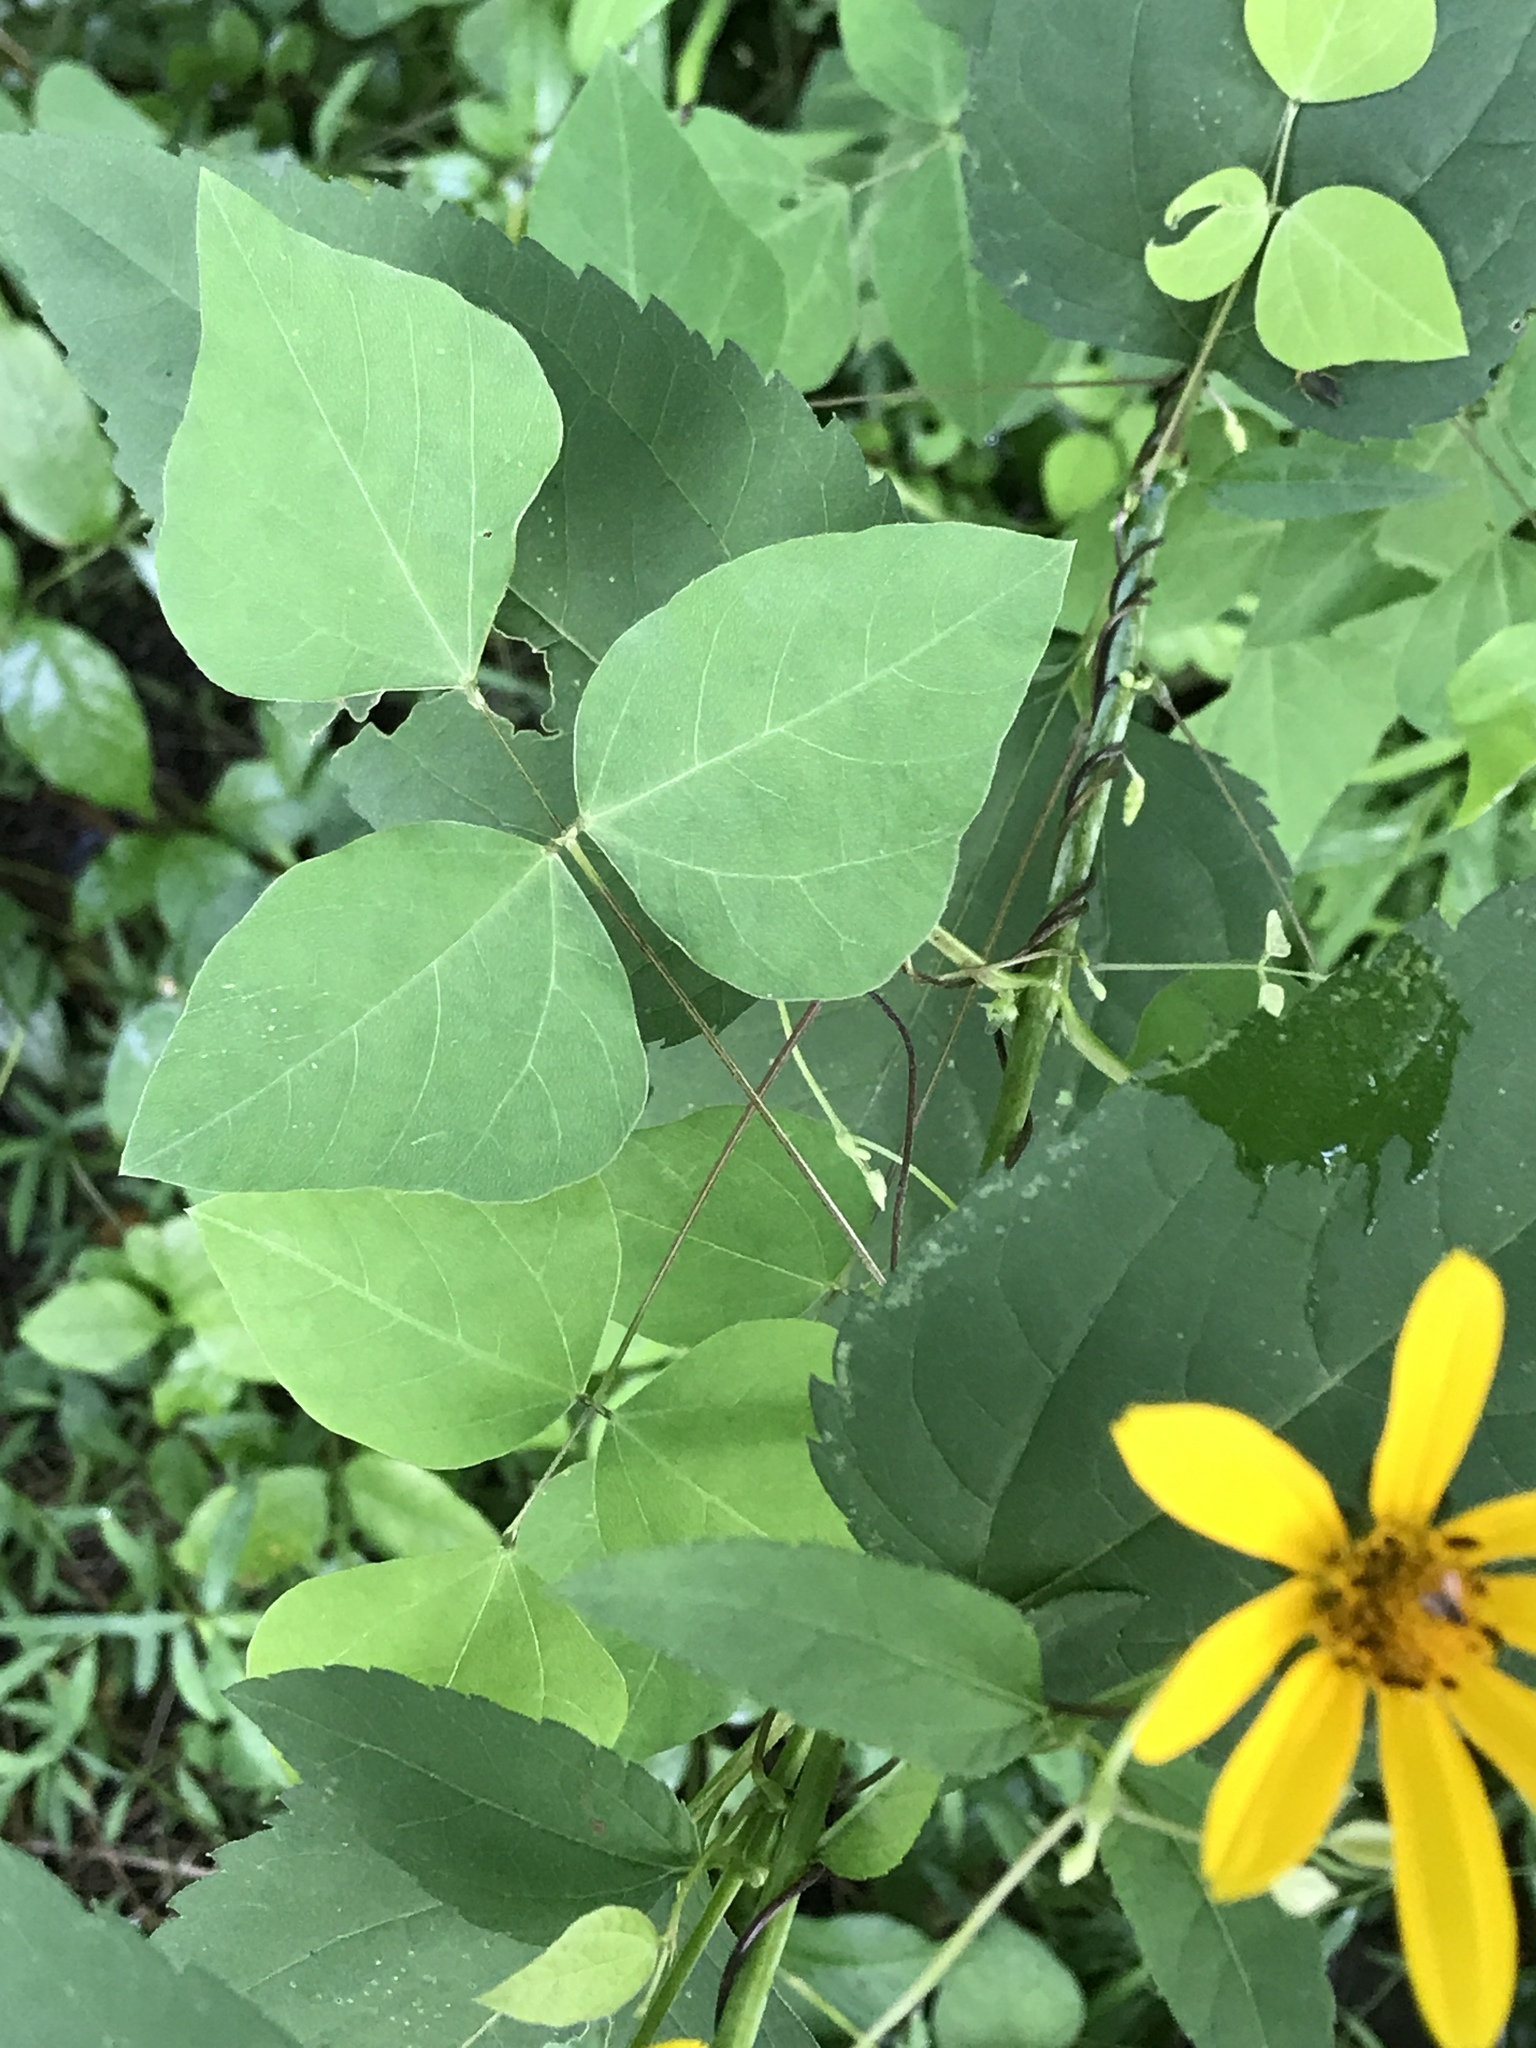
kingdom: Plantae
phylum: Tracheophyta
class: Magnoliopsida
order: Fabales
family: Fabaceae
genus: Amphicarpaea
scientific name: Amphicarpaea bracteata
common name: American hog peanut
